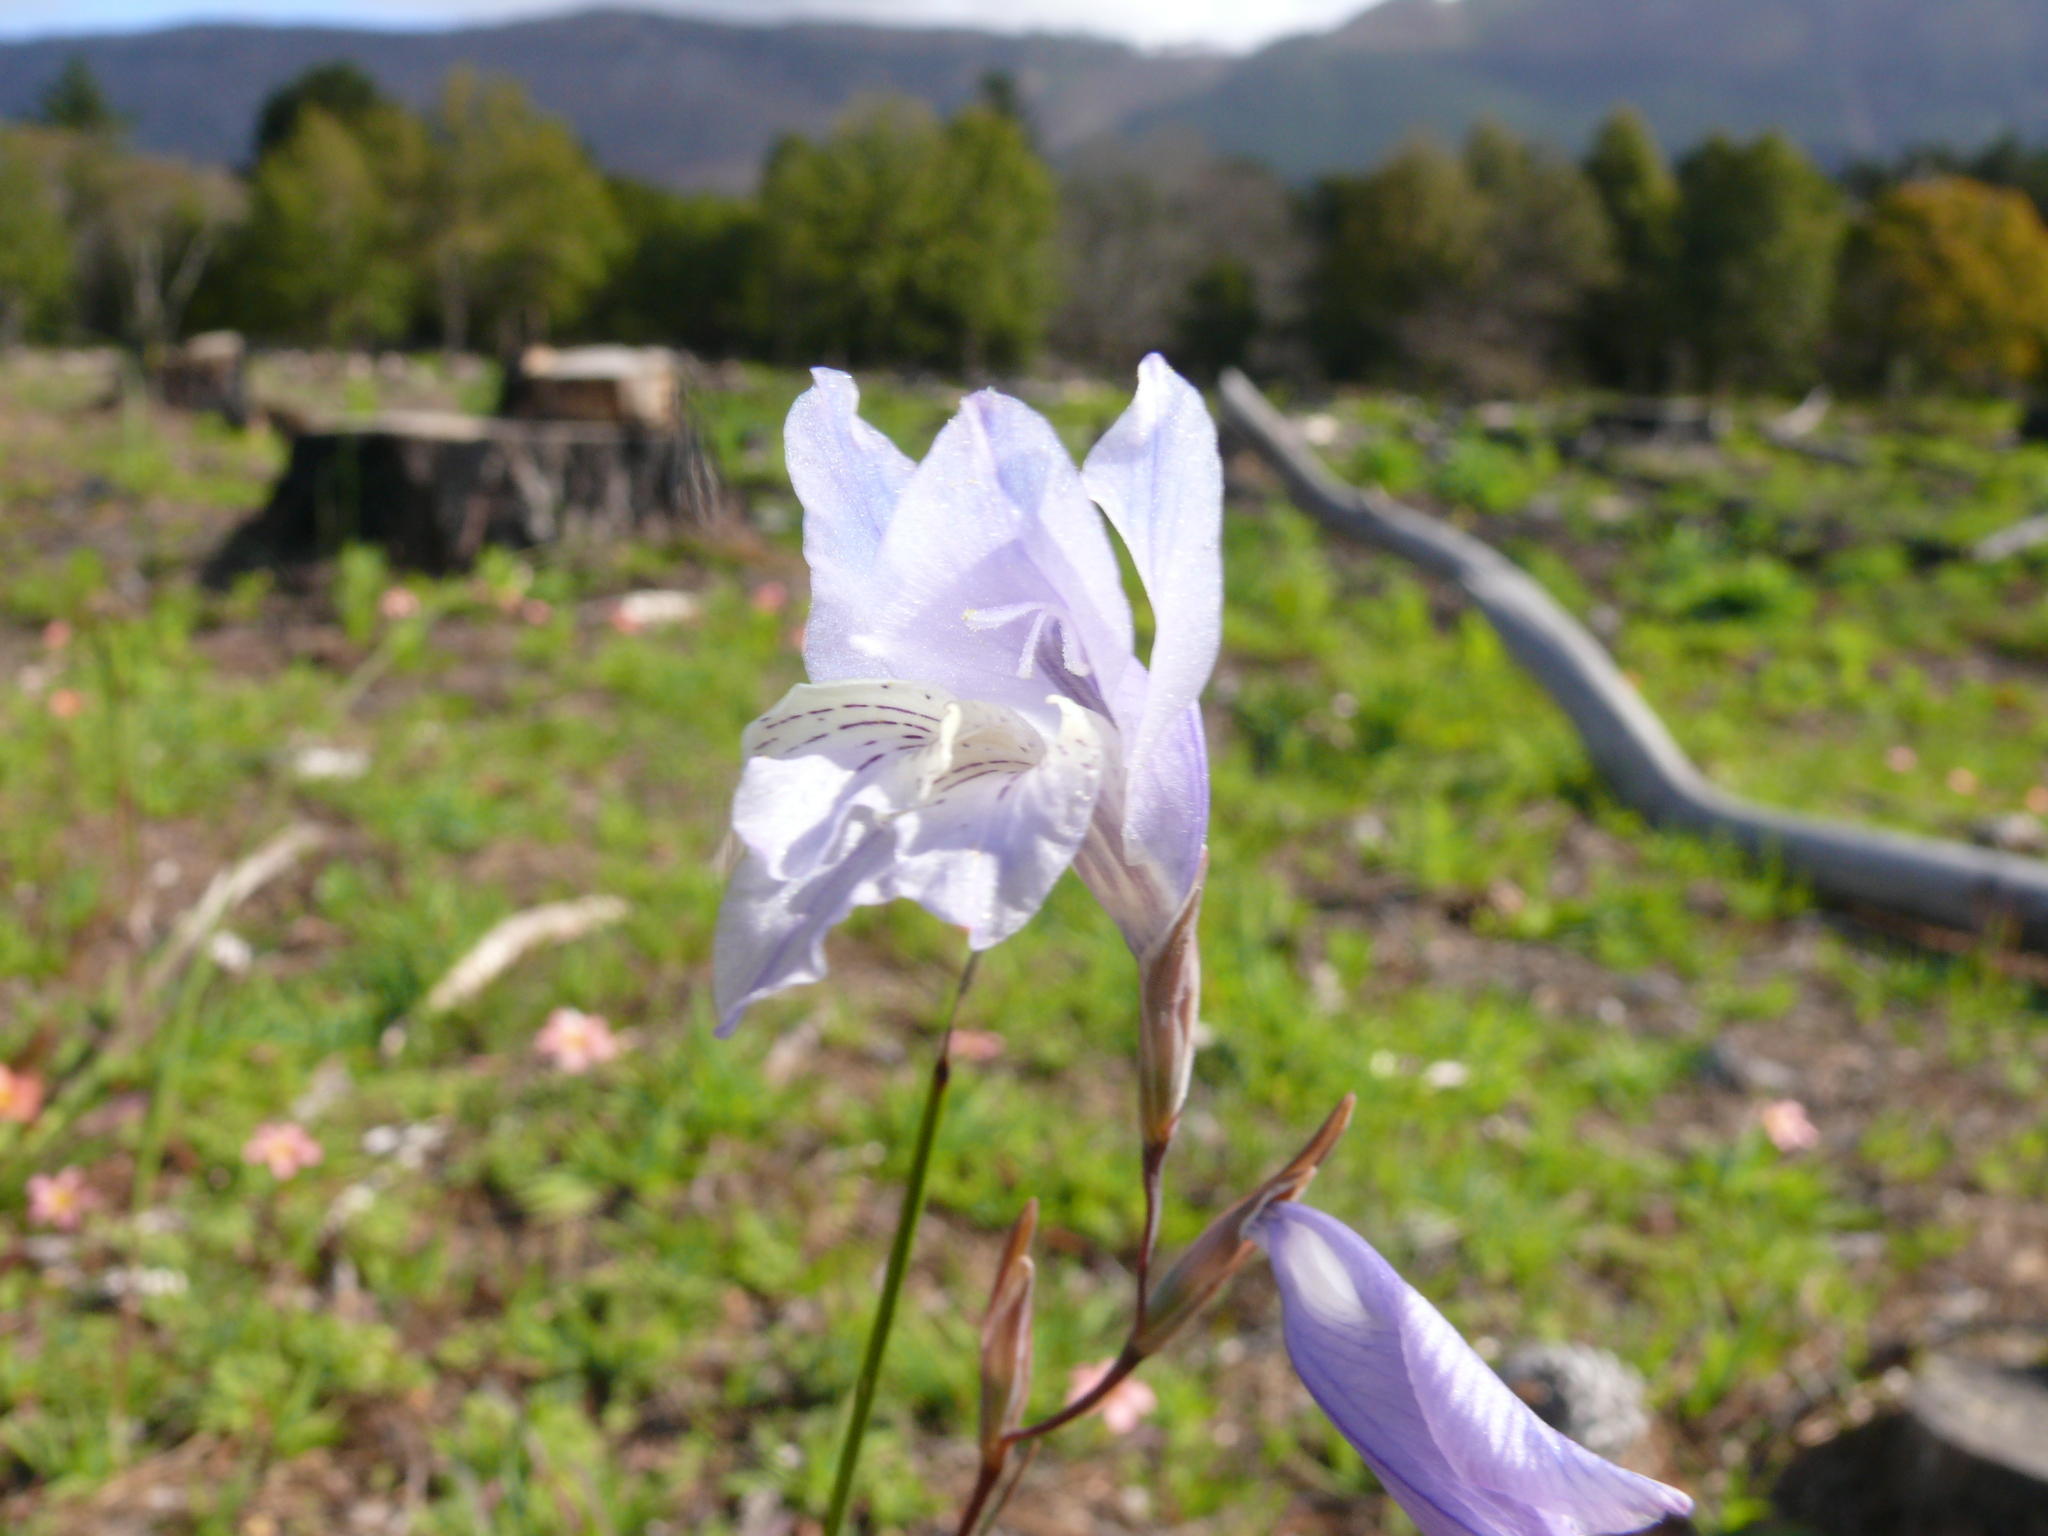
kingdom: Plantae
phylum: Tracheophyta
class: Liliopsida
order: Asparagales
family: Iridaceae
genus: Gladiolus
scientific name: Gladiolus gracilis
